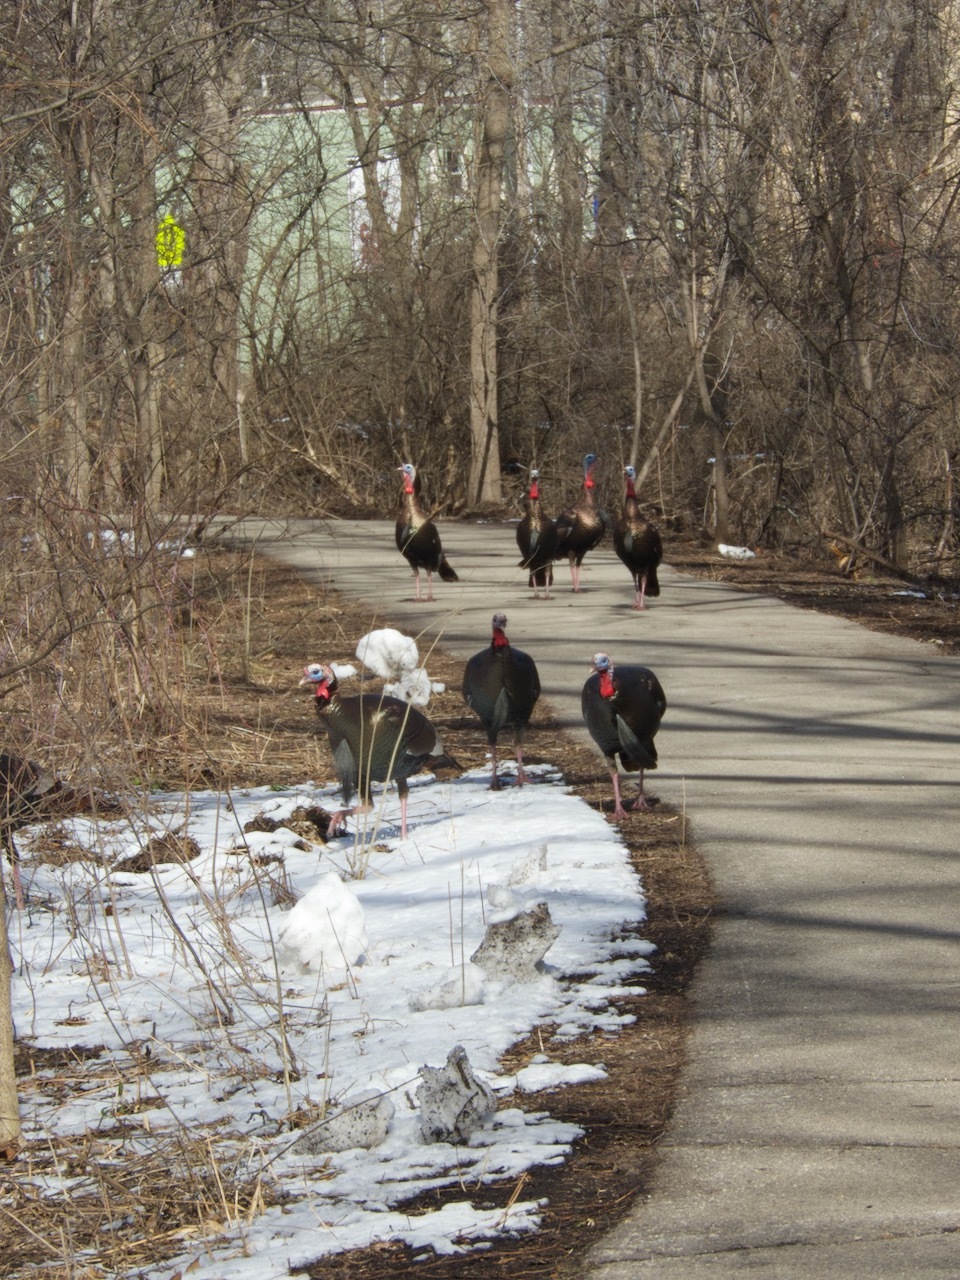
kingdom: Animalia
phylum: Chordata
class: Aves
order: Galliformes
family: Phasianidae
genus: Meleagris
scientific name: Meleagris gallopavo
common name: Wild turkey
